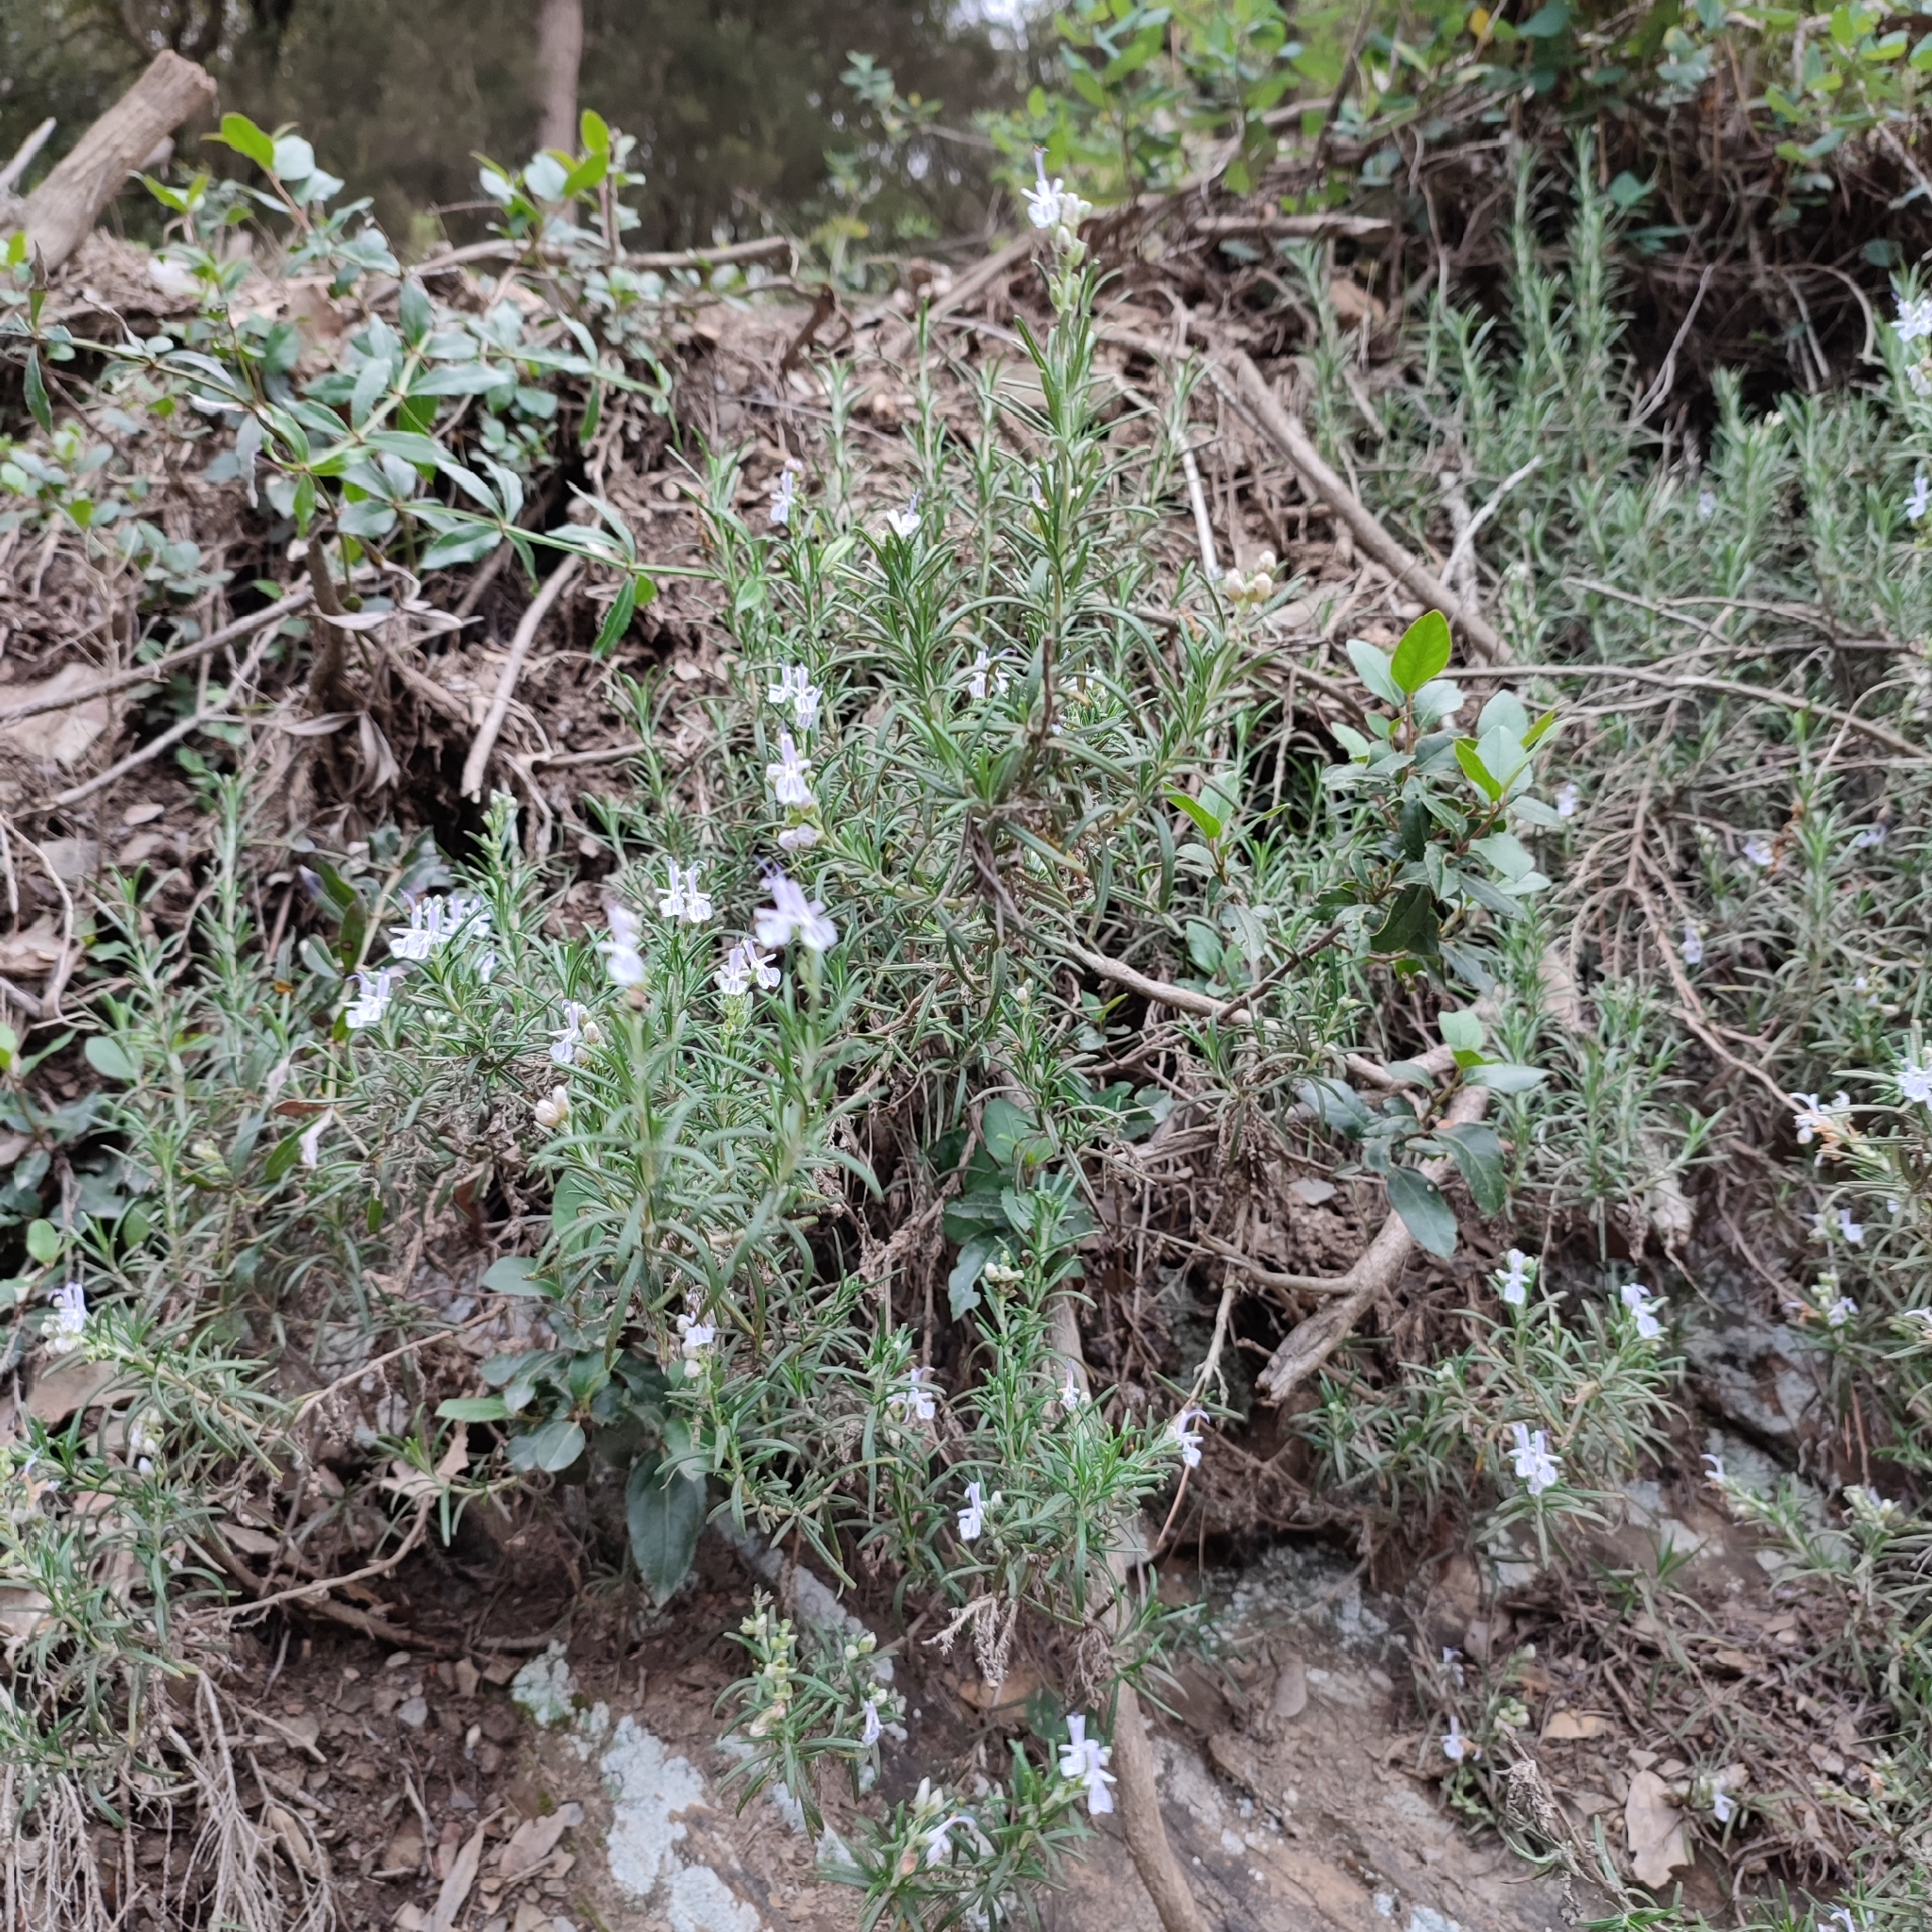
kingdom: Plantae
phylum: Tracheophyta
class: Magnoliopsida
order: Lamiales
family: Lamiaceae
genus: Salvia
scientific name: Salvia rosmarinus
